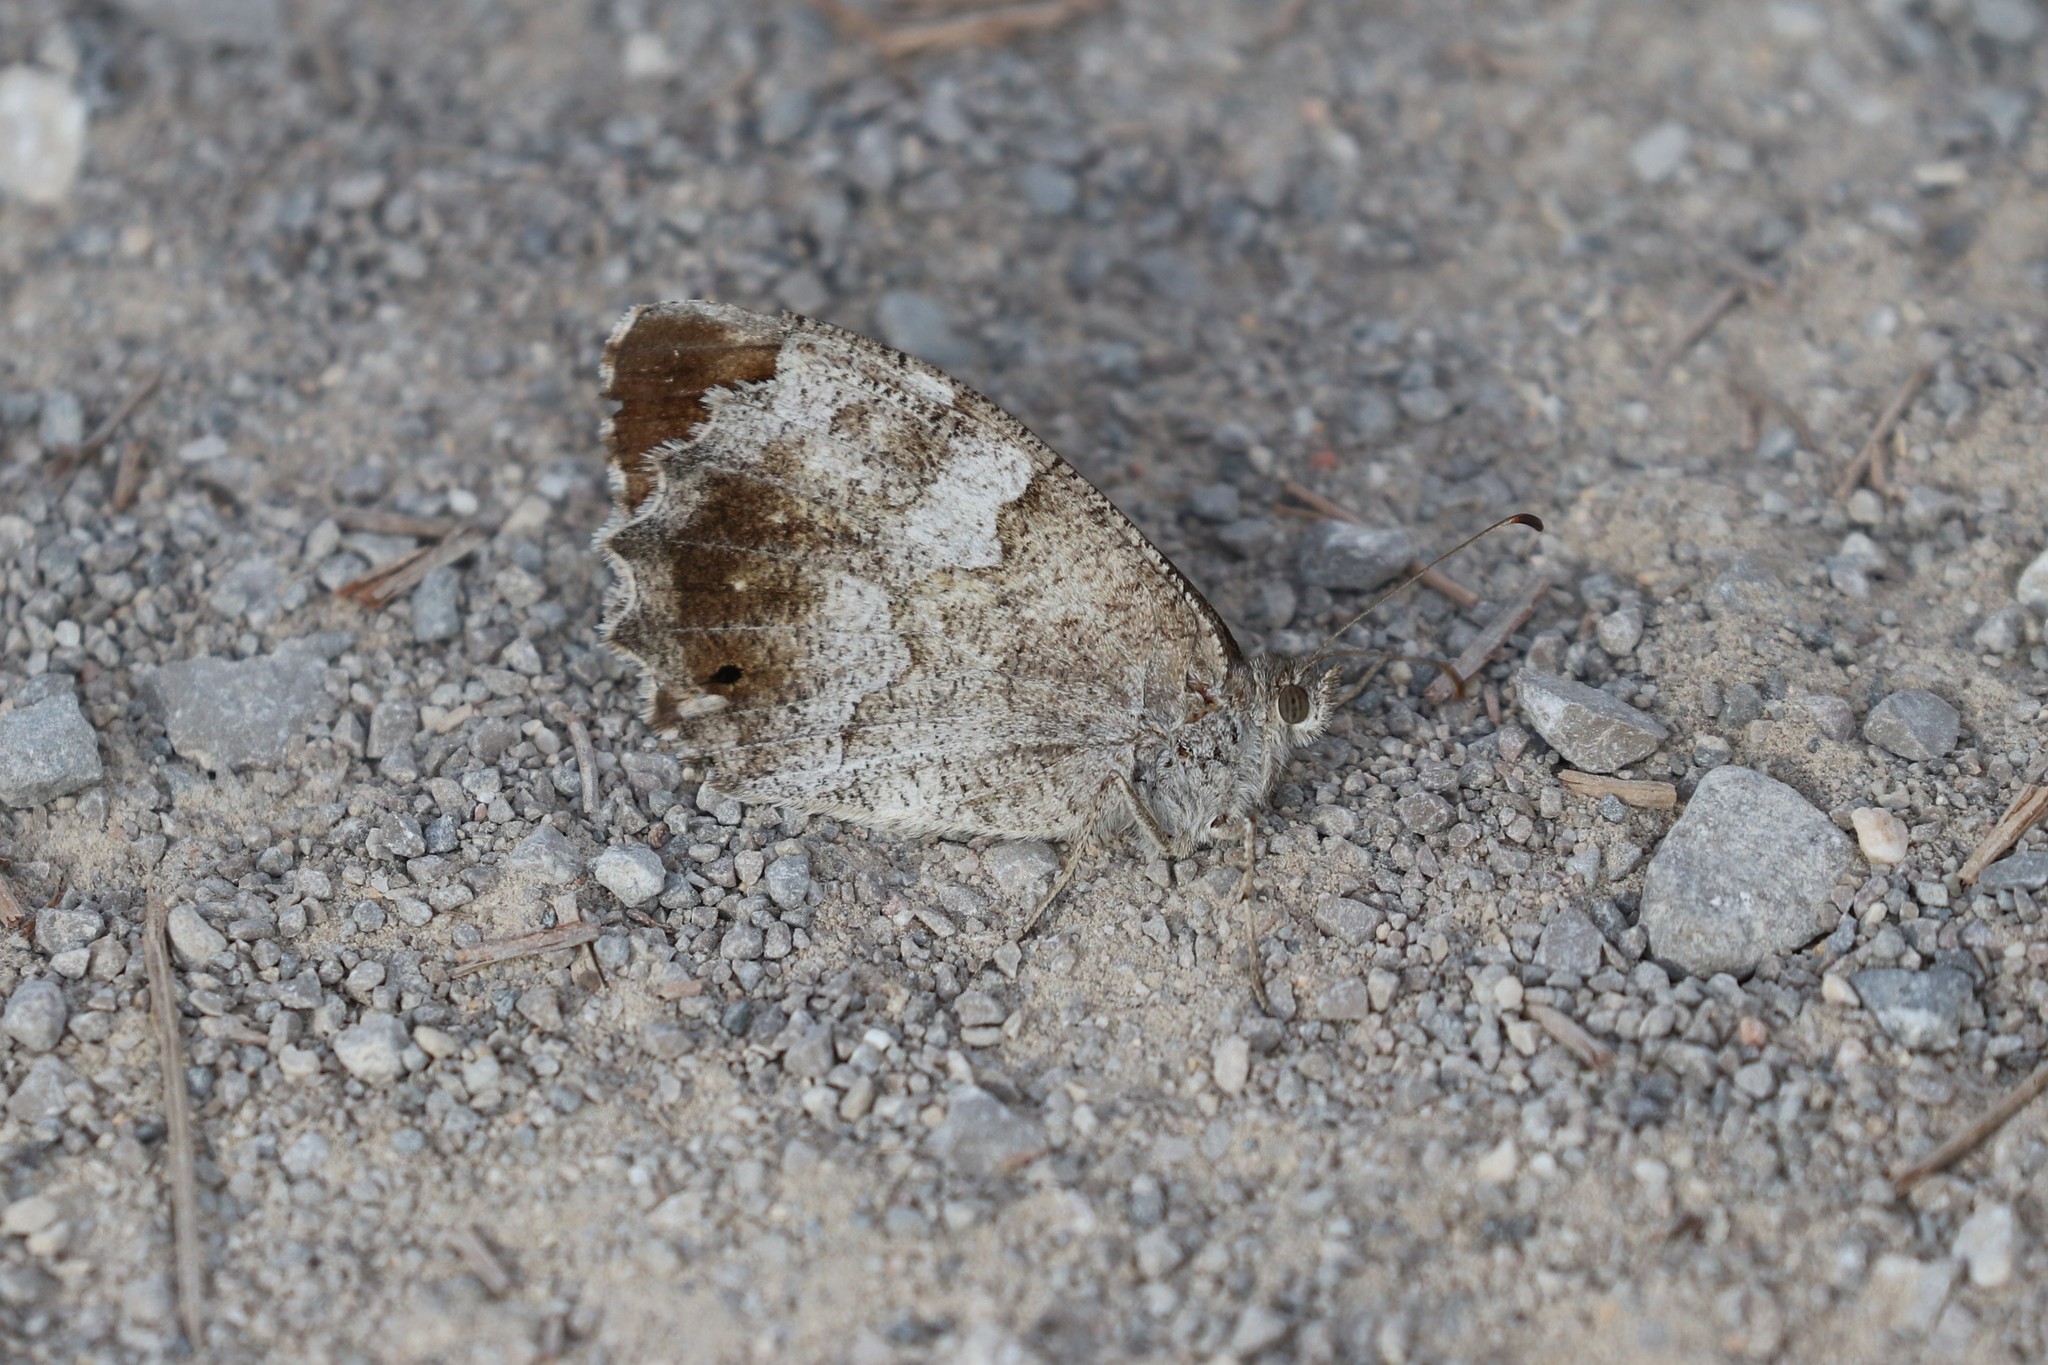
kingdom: Animalia
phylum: Arthropoda
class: Insecta
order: Lepidoptera
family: Nymphalidae
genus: Hipparchia
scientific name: Hipparchia statilinus
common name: Tree grayling
